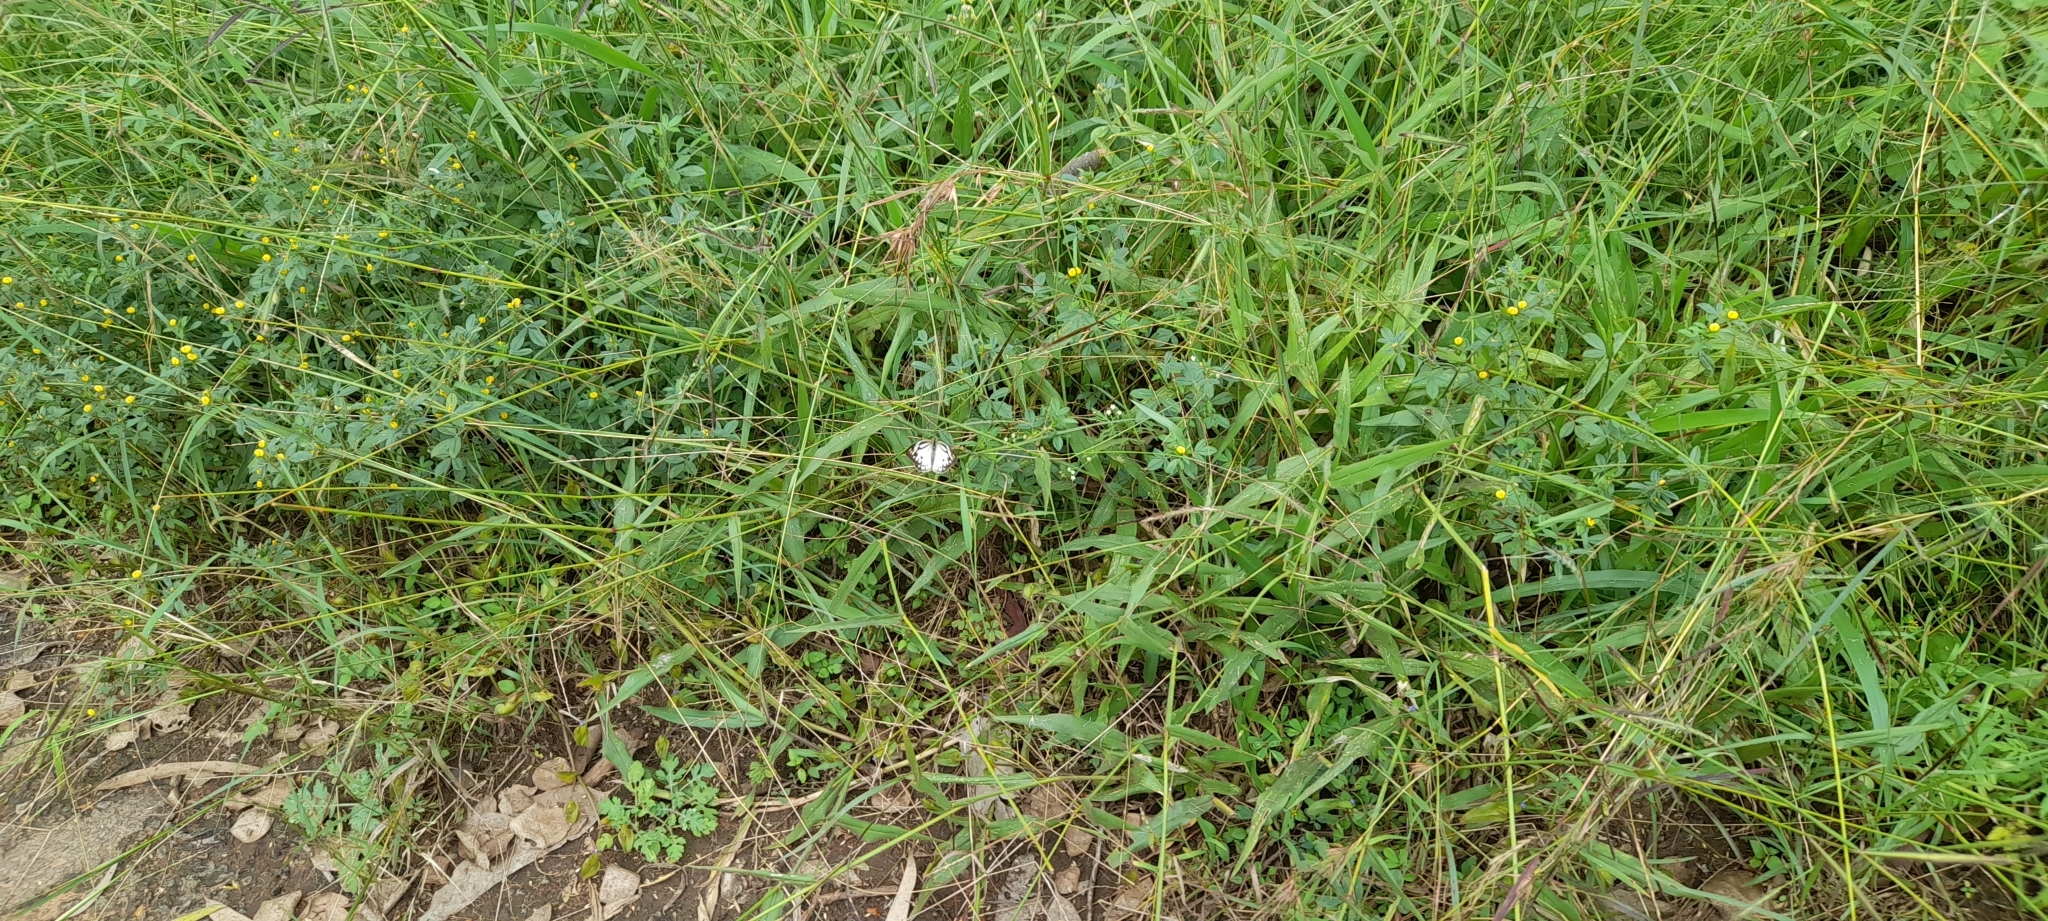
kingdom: Animalia
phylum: Arthropoda
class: Insecta
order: Lepidoptera
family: Pieridae
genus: Cepora
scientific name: Cepora nerissa
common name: Common gull
